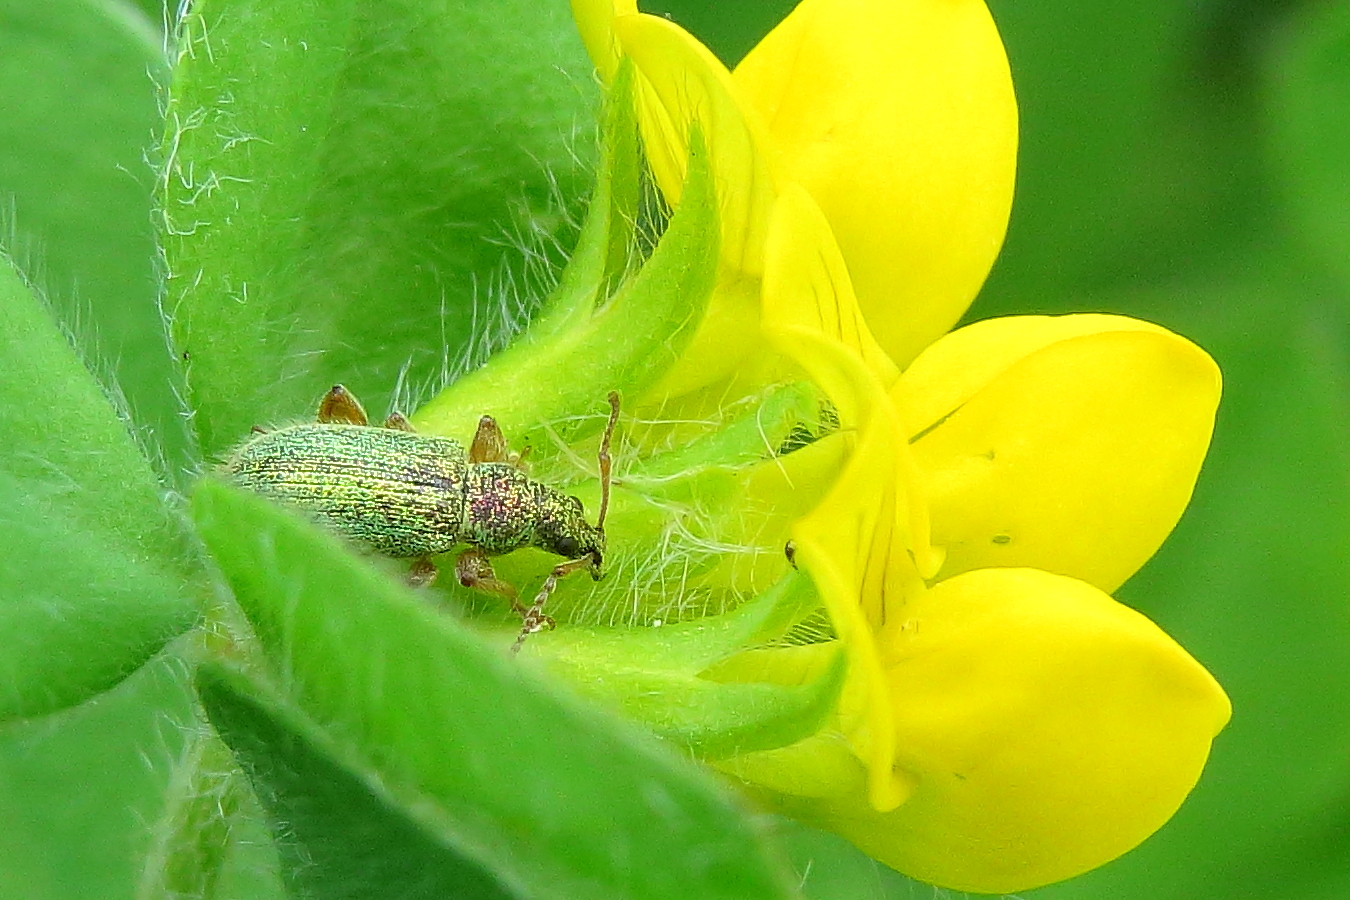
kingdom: Animalia
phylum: Arthropoda
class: Insecta
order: Coleoptera
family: Curculionidae
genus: Polydrusus
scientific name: Polydrusus formosus
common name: Weevil
